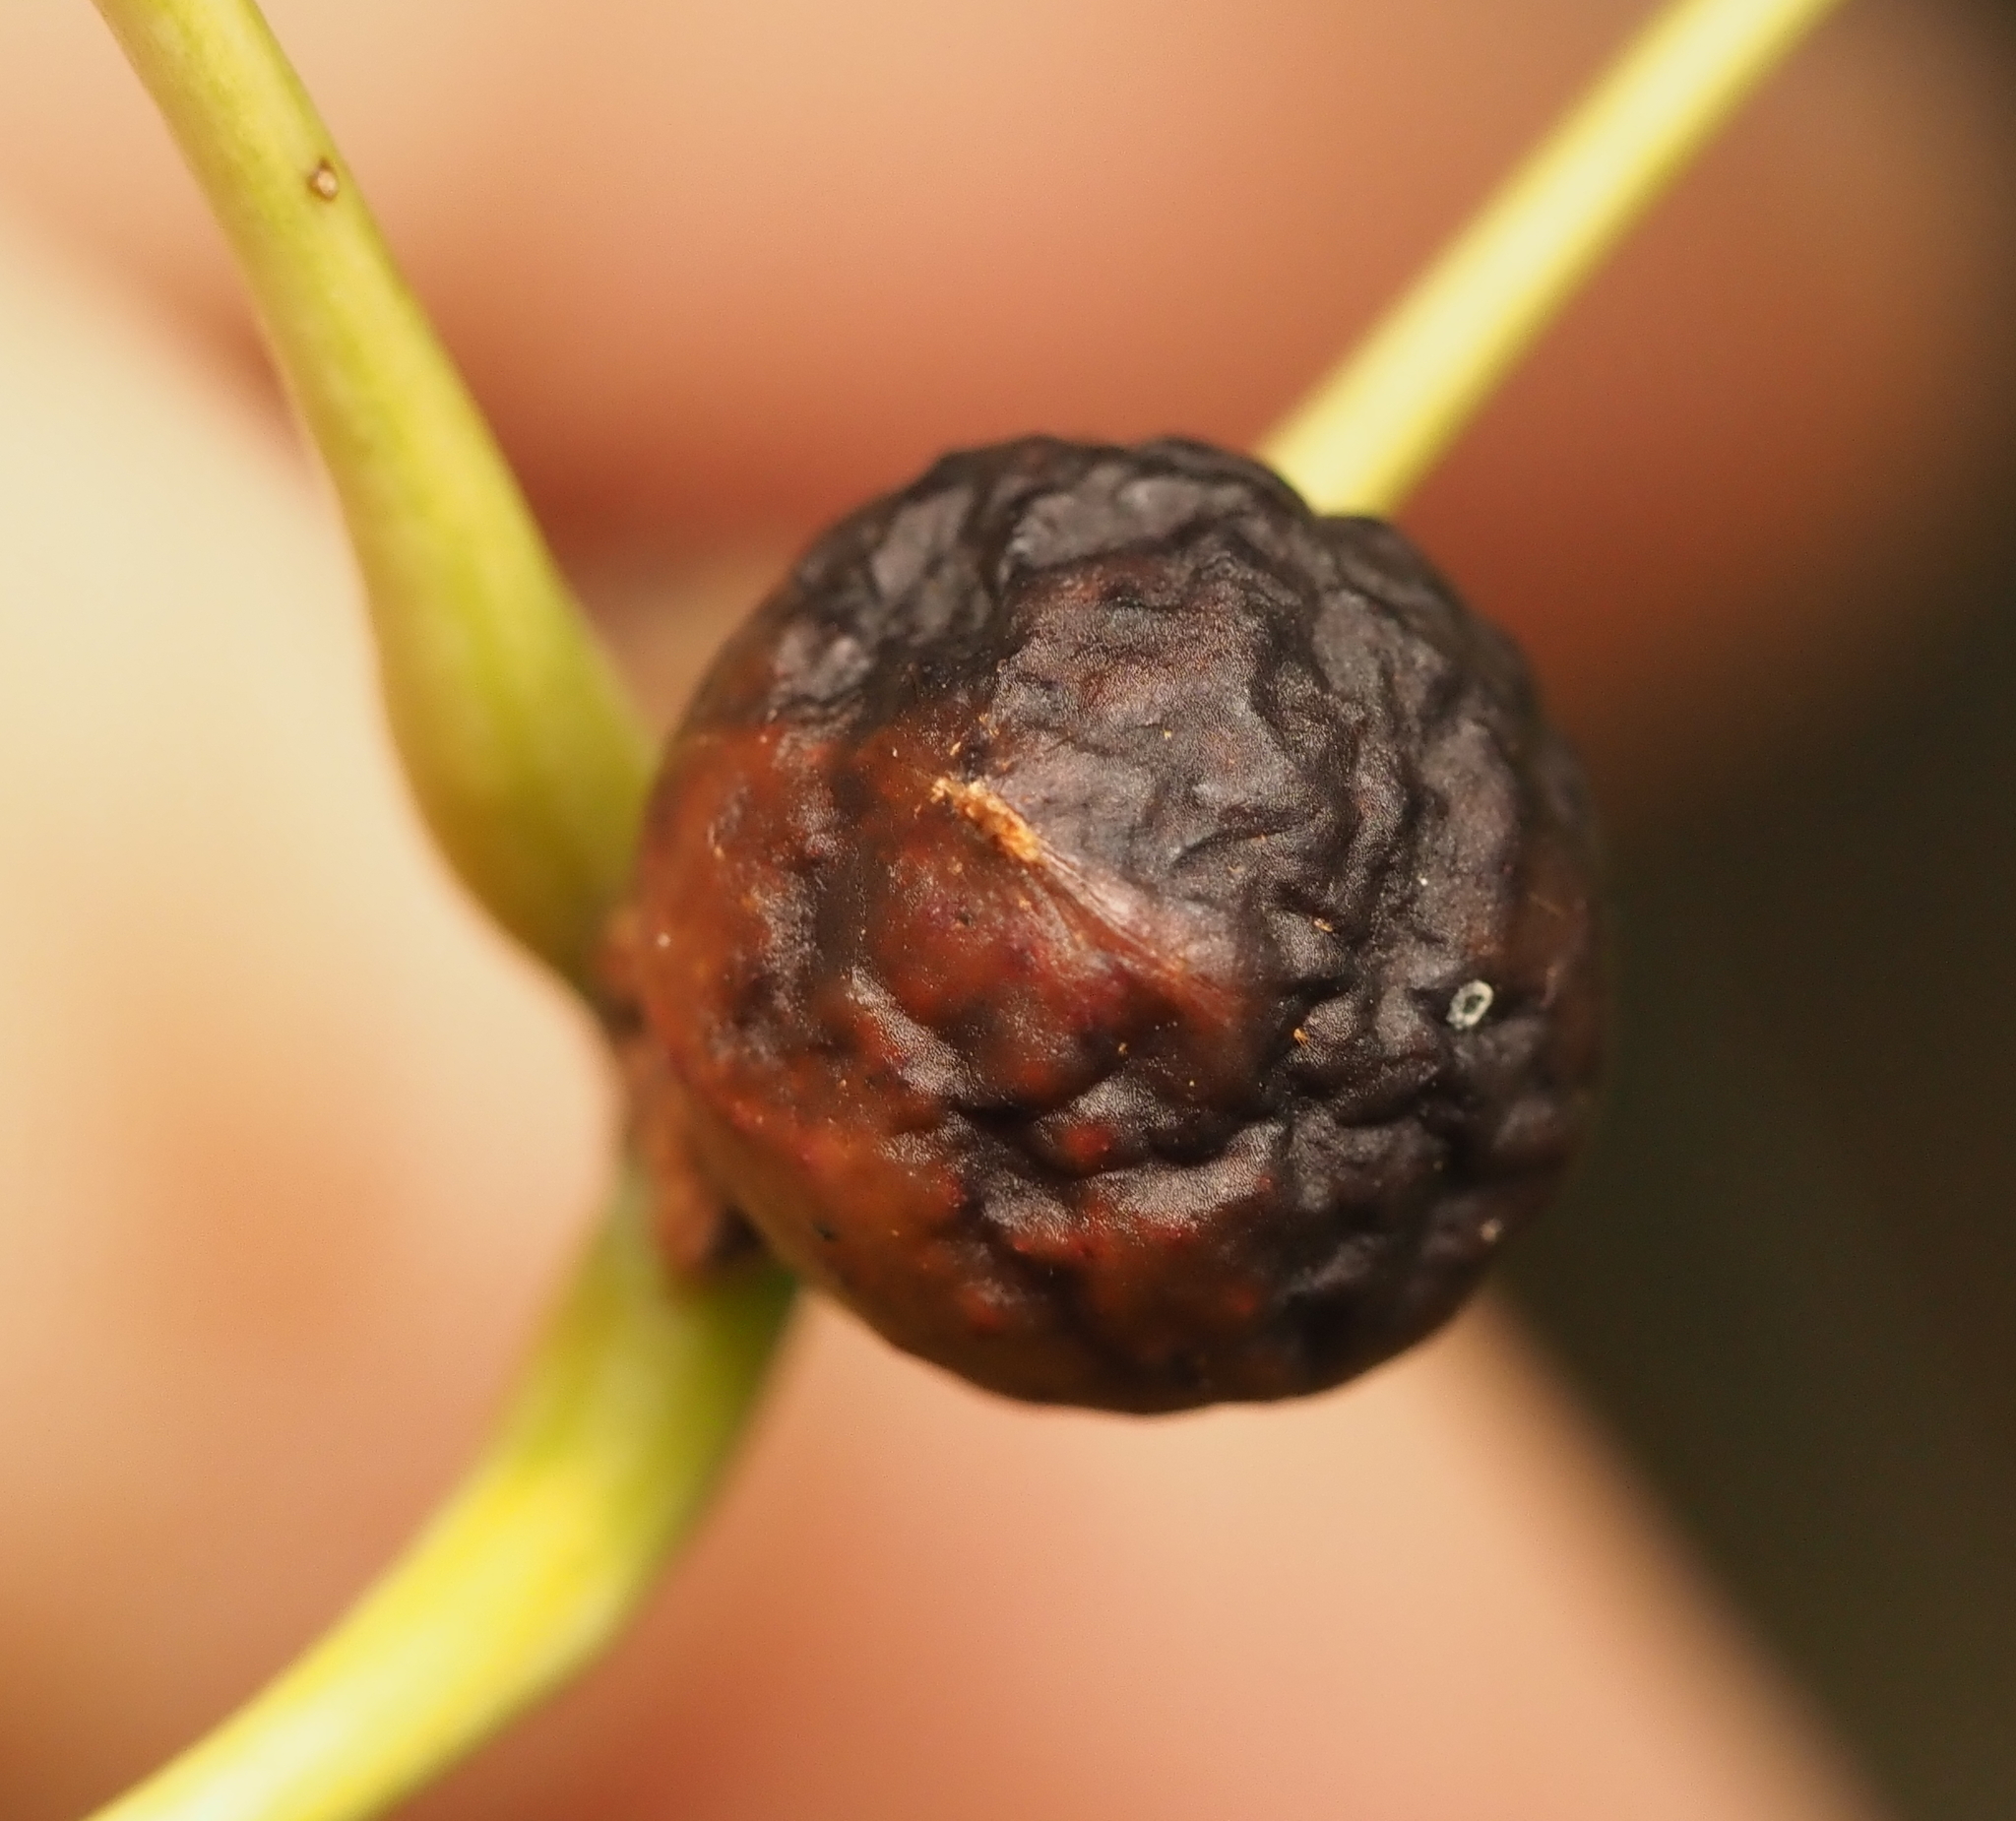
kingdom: Animalia
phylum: Arthropoda
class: Insecta
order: Hymenoptera
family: Cynipidae
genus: Amphibolips
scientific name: Amphibolips
